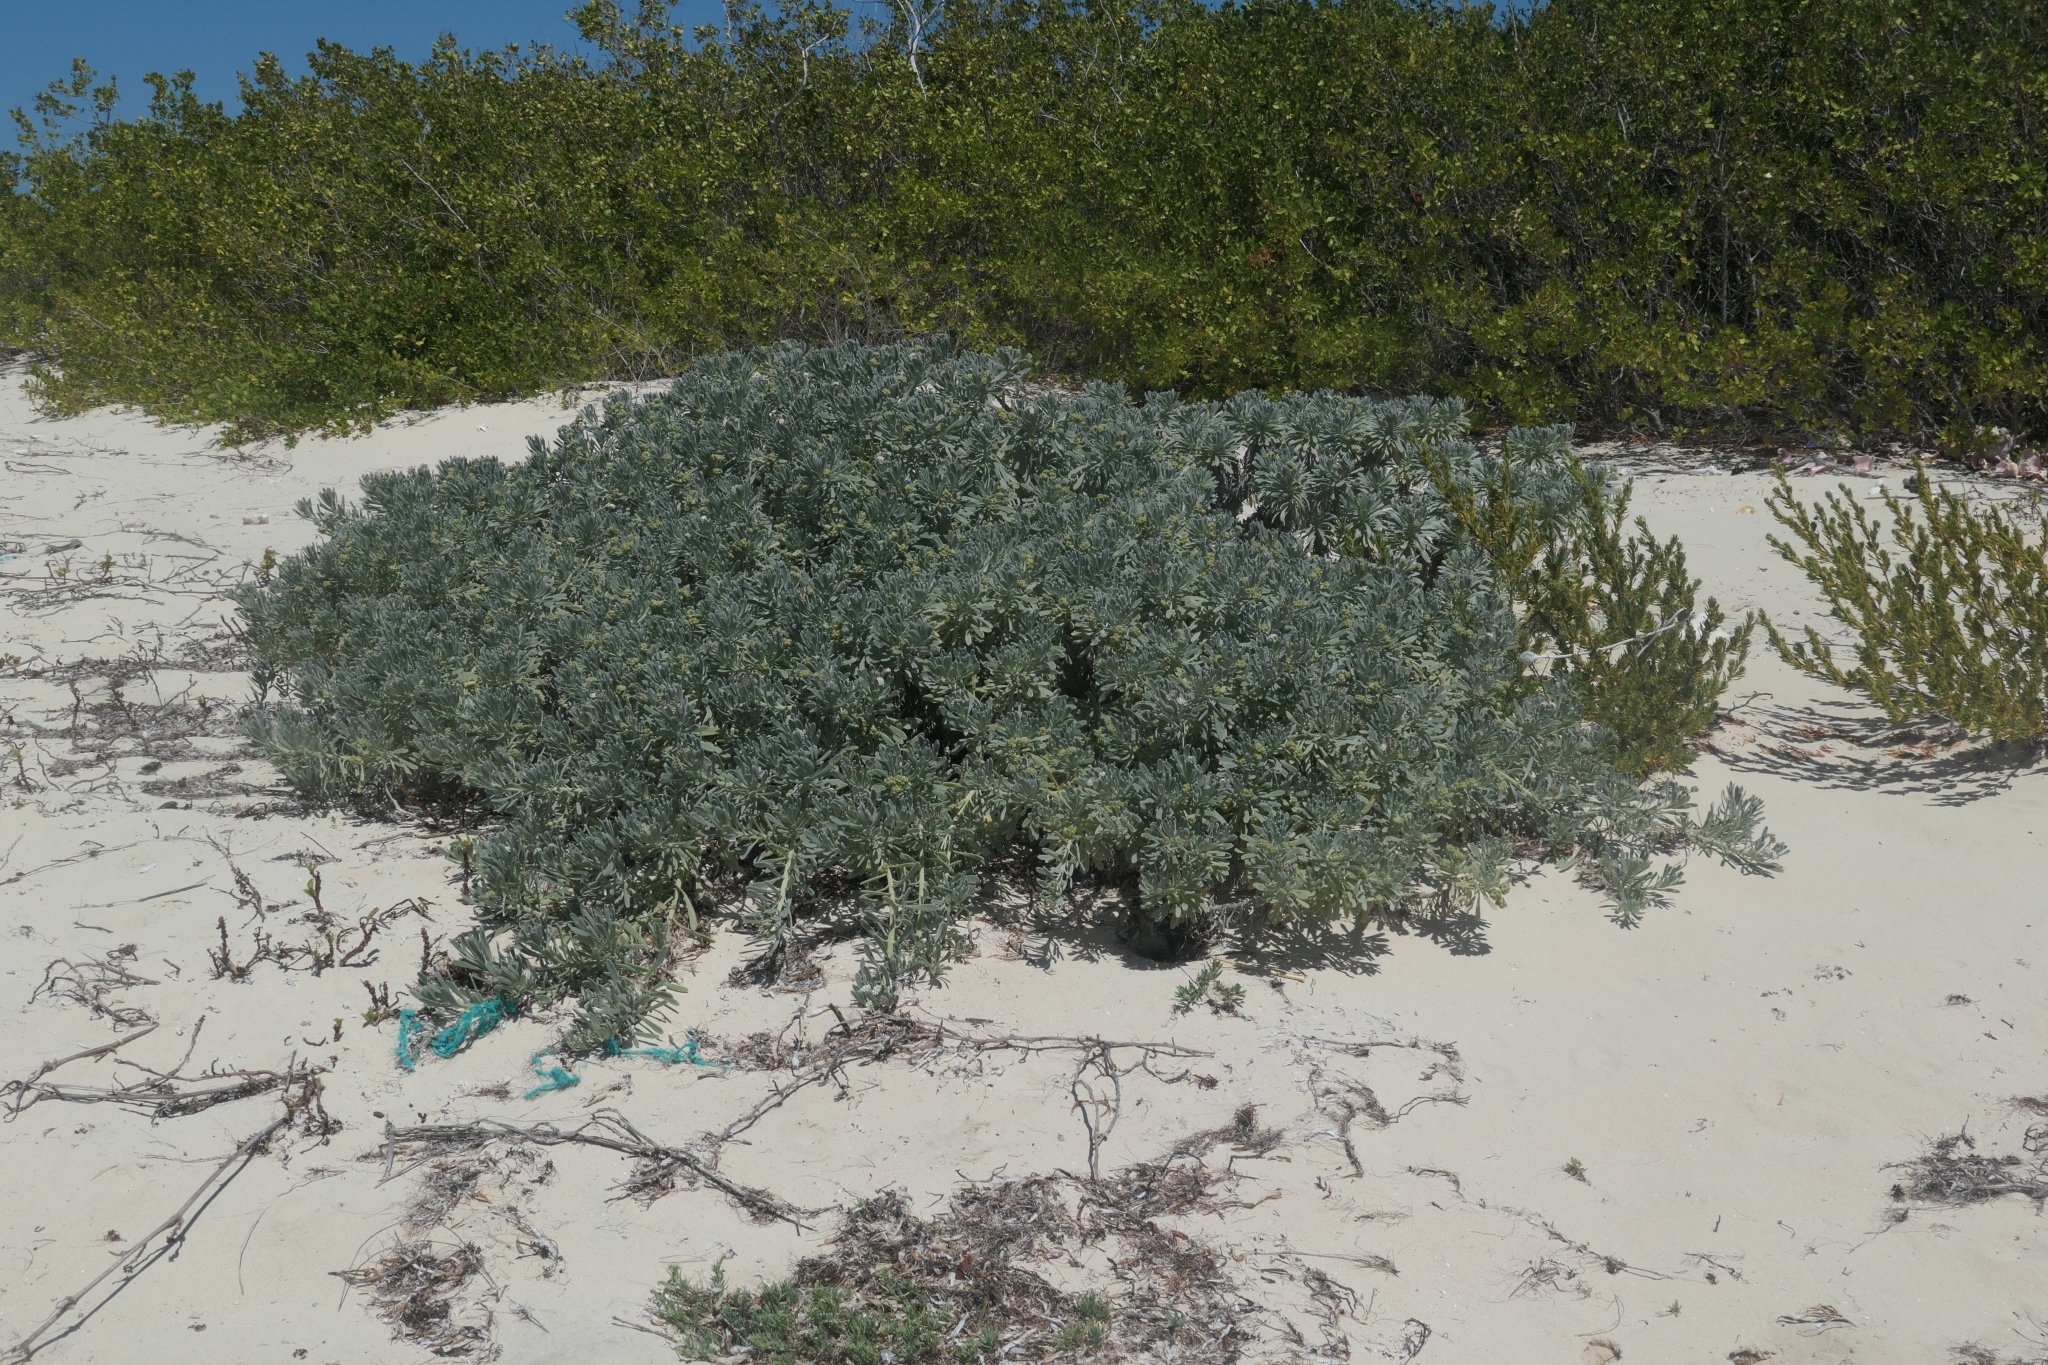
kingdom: Plantae
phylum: Tracheophyta
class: Magnoliopsida
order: Boraginales
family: Heliotropiaceae
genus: Tournefortia
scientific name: Tournefortia gnaphalodes
